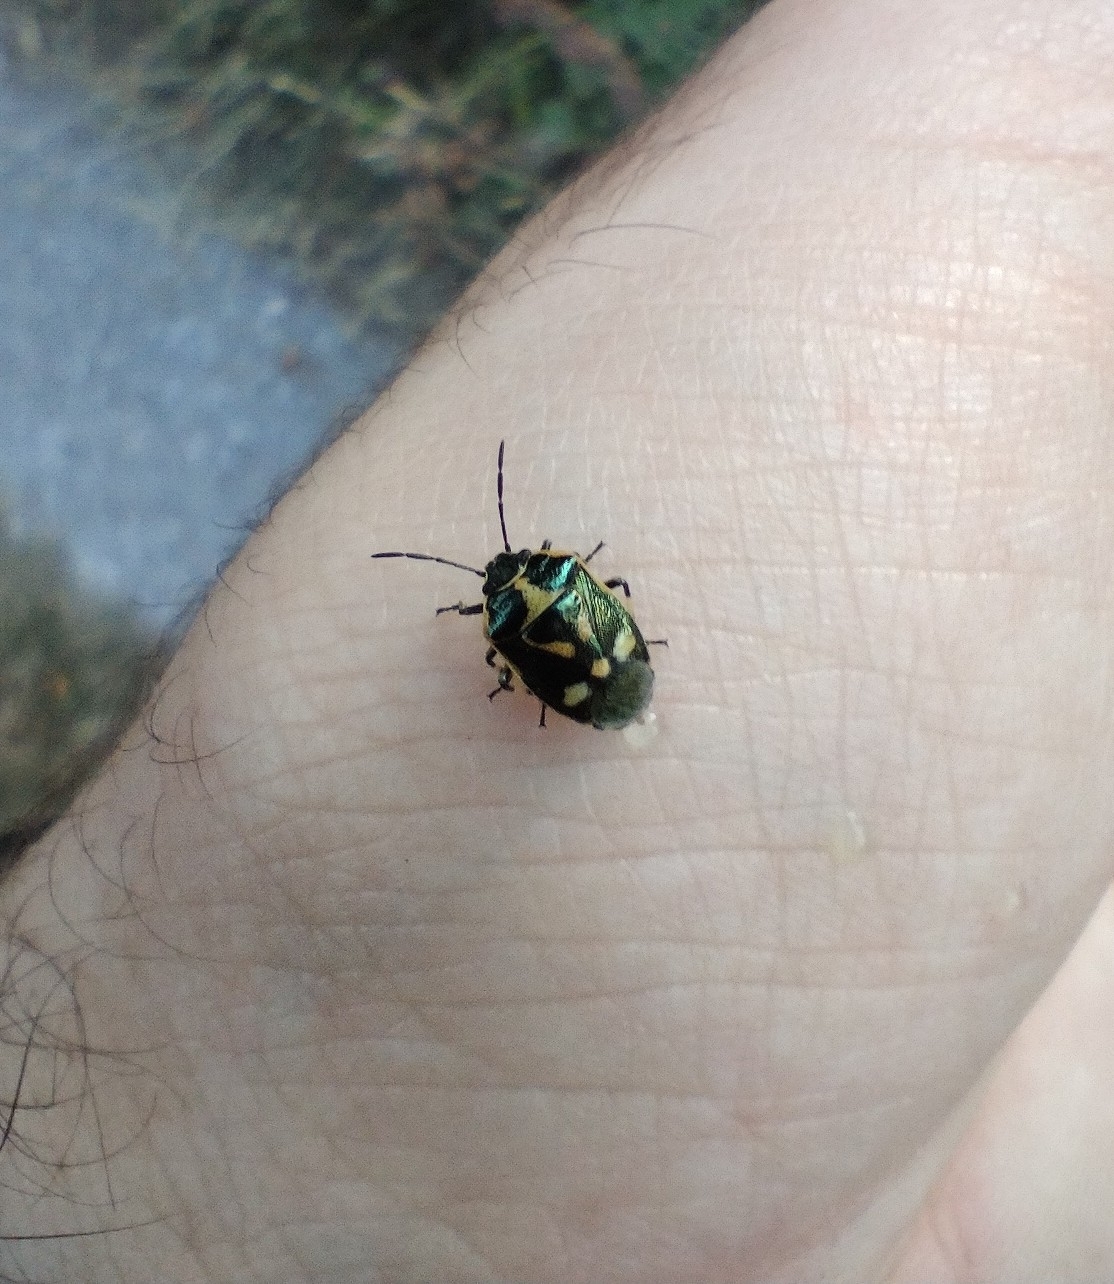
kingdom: Animalia
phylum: Arthropoda
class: Insecta
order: Hemiptera
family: Pentatomidae
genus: Eurydema
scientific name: Eurydema oleracea
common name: Cabbage bug
